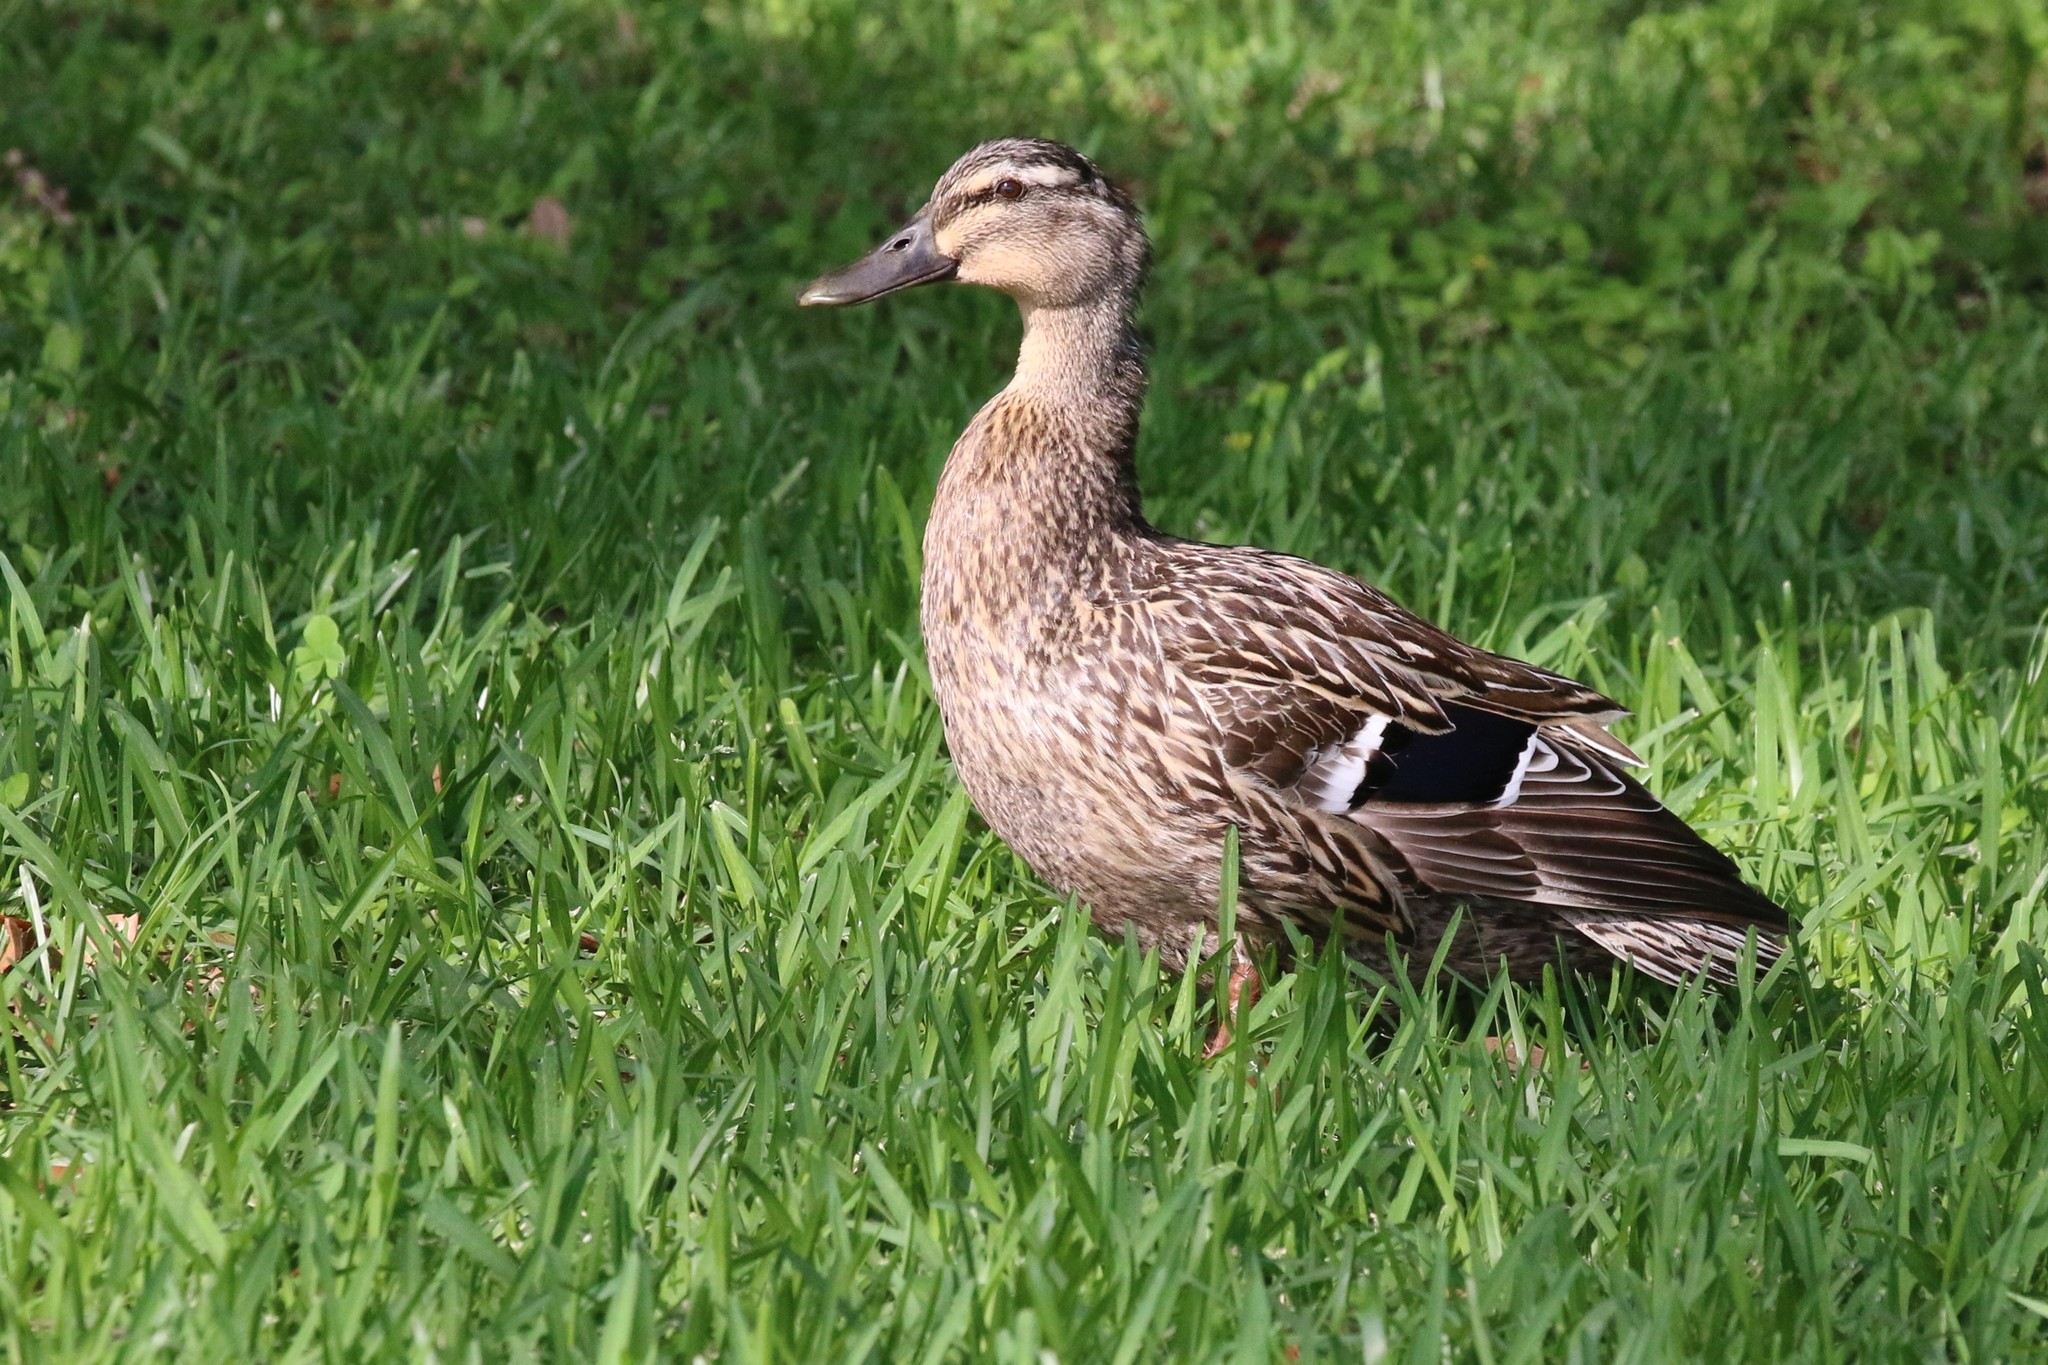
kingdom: Animalia
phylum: Chordata
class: Aves
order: Anseriformes
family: Anatidae
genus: Anas
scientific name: Anas platyrhynchos
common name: Mallard
